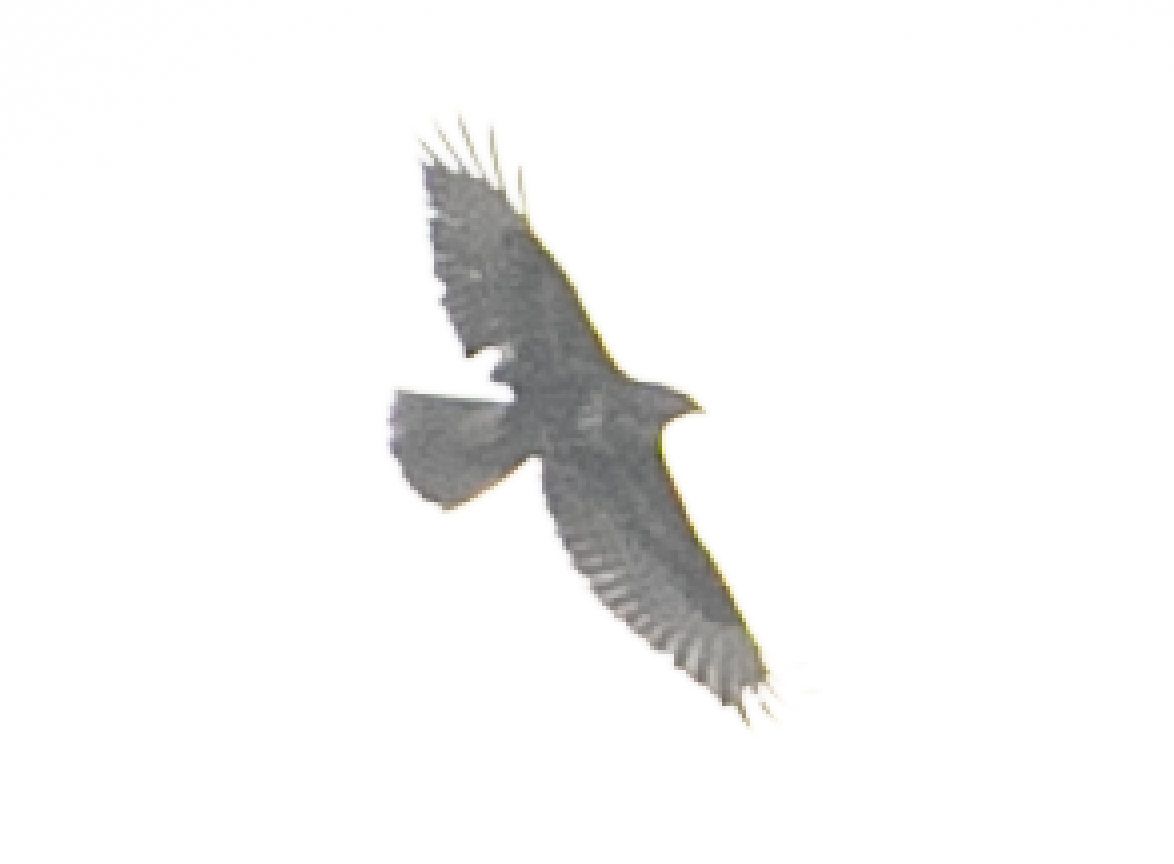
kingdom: Animalia
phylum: Chordata
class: Aves
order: Accipitriformes
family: Accipitridae
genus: Buteo
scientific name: Buteo buteo
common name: Common buzzard
